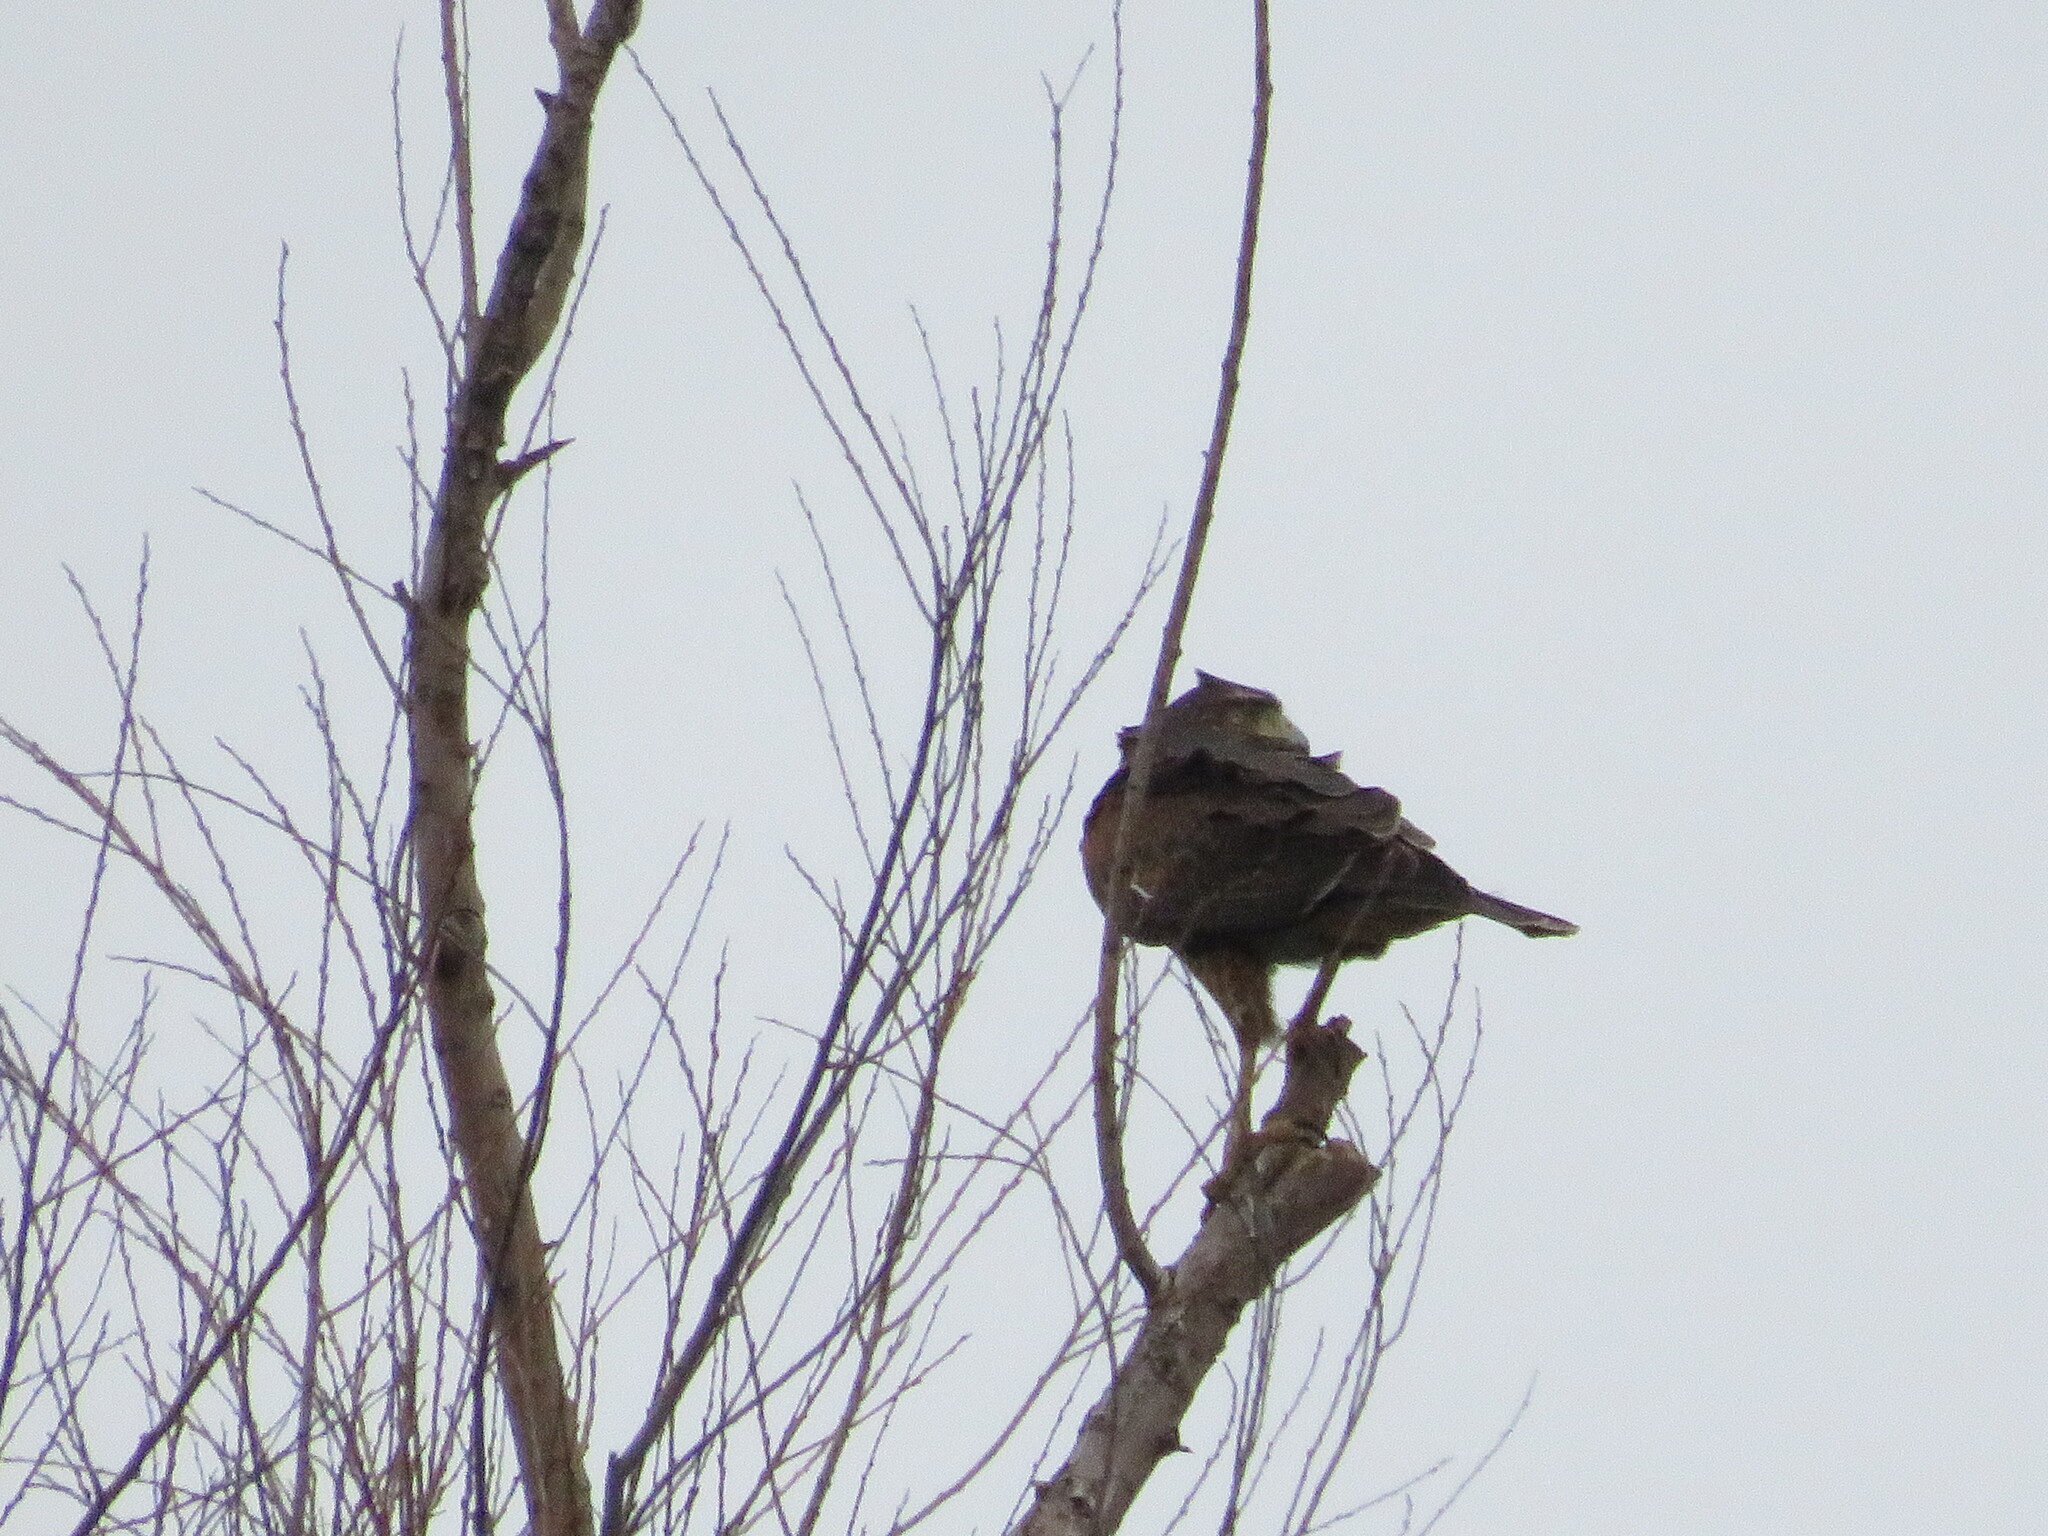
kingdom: Animalia
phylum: Chordata
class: Aves
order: Accipitriformes
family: Accipitridae
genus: Parabuteo
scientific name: Parabuteo unicinctus
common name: Harris's hawk
